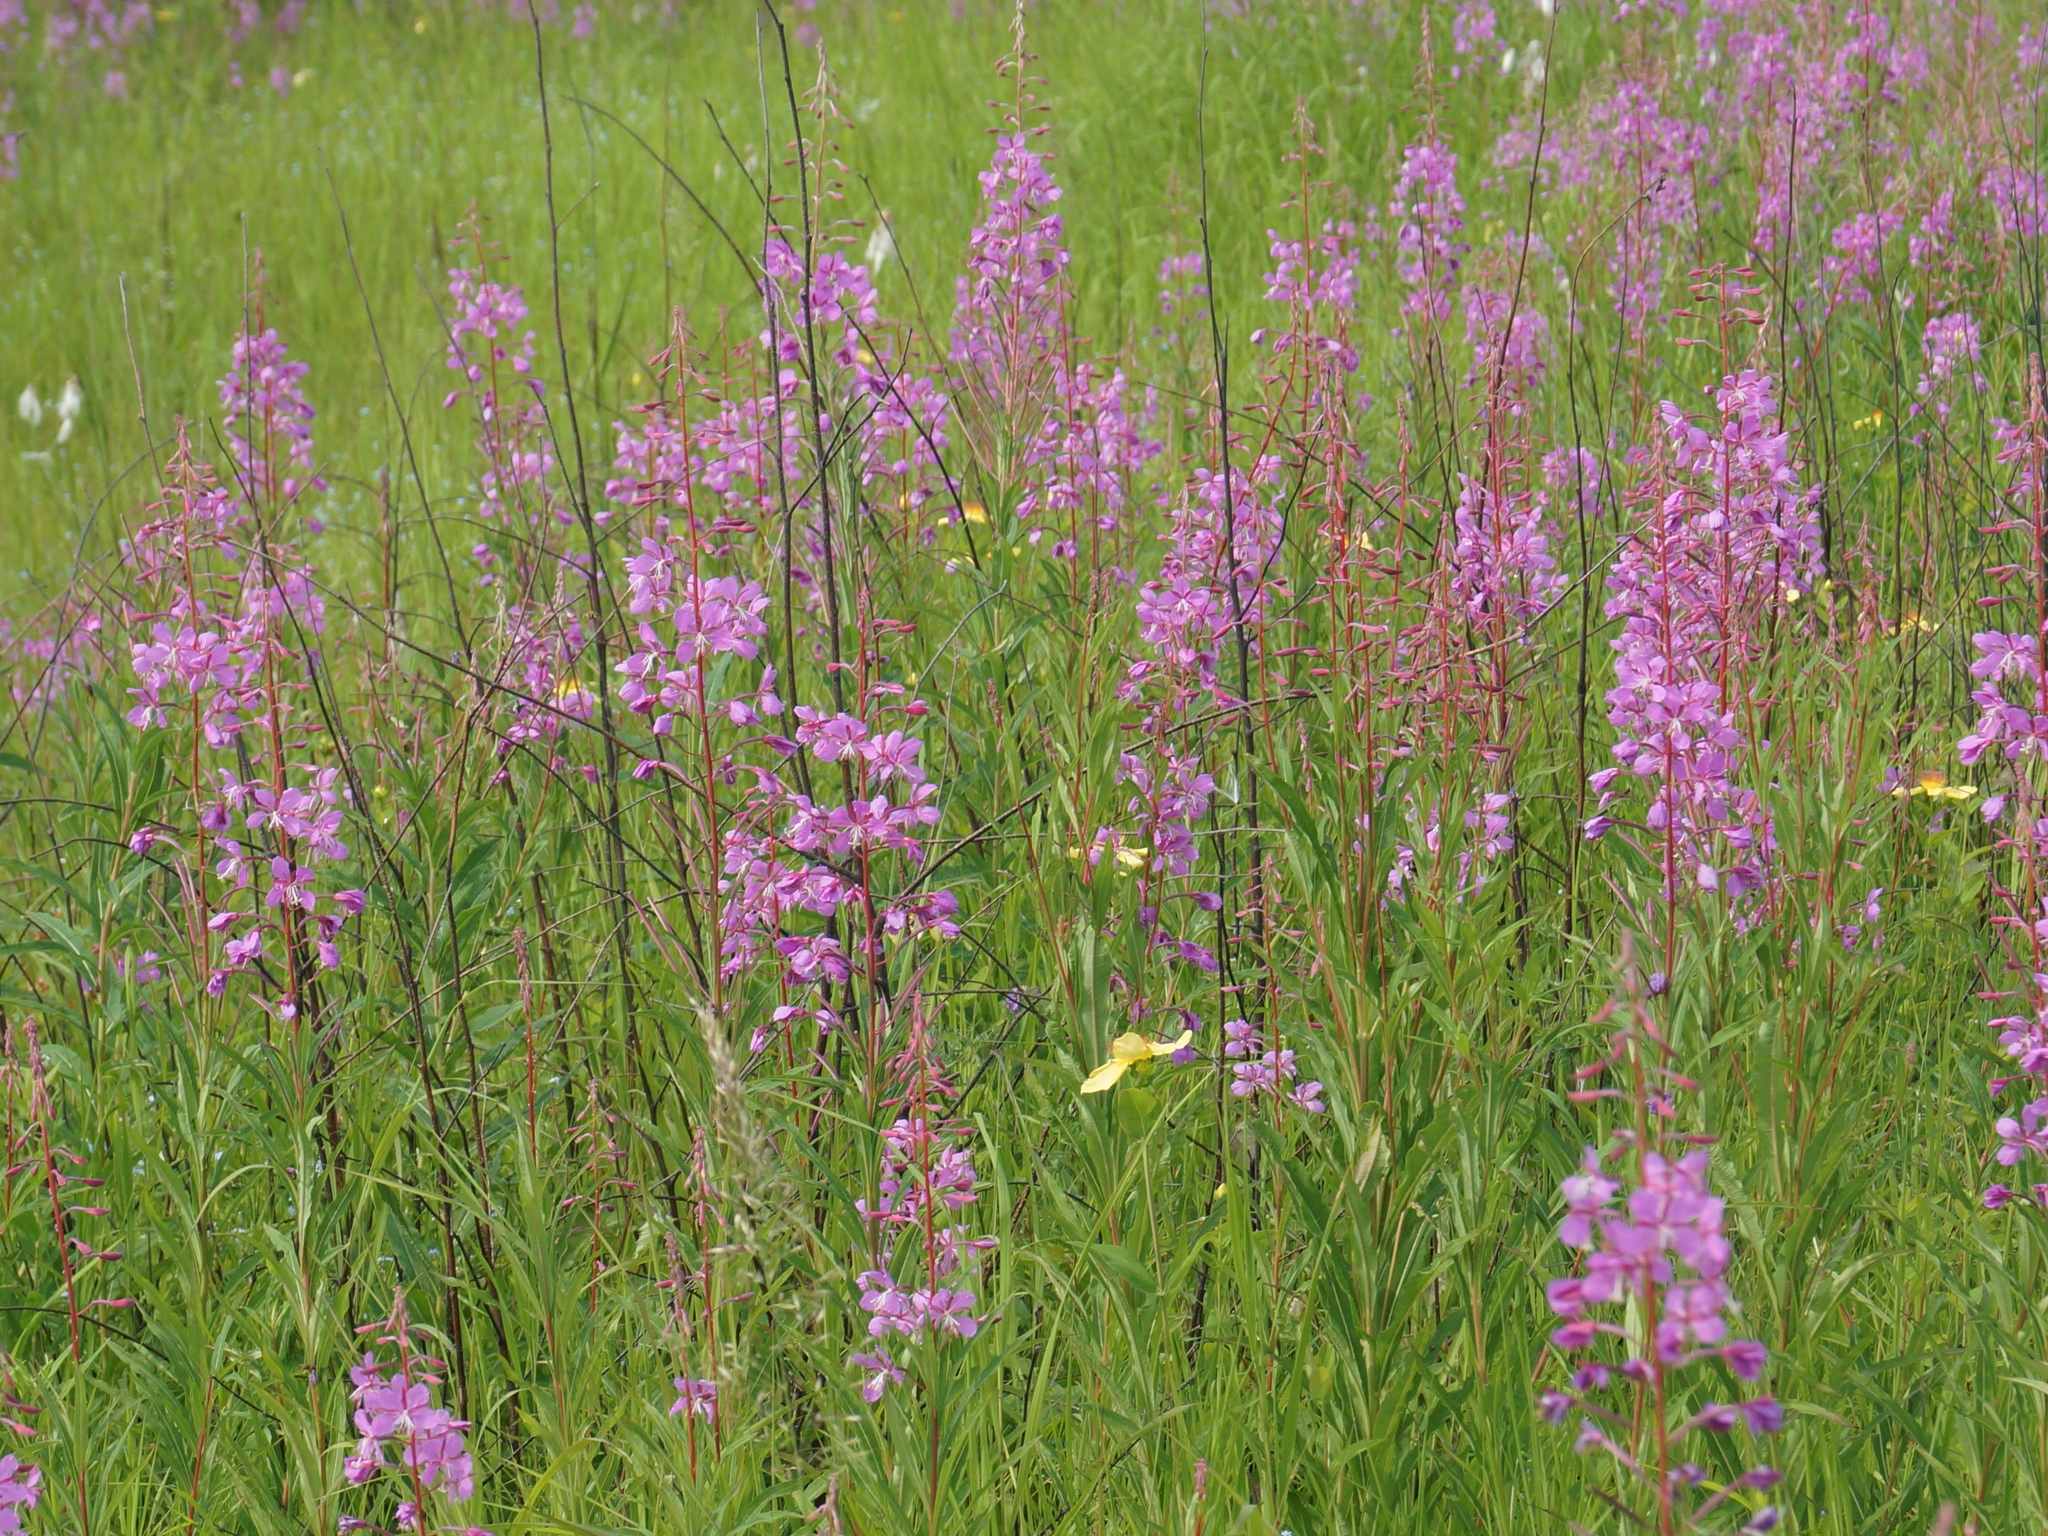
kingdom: Plantae
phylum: Tracheophyta
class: Magnoliopsida
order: Myrtales
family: Onagraceae
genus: Chamaenerion
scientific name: Chamaenerion angustifolium
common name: Fireweed
